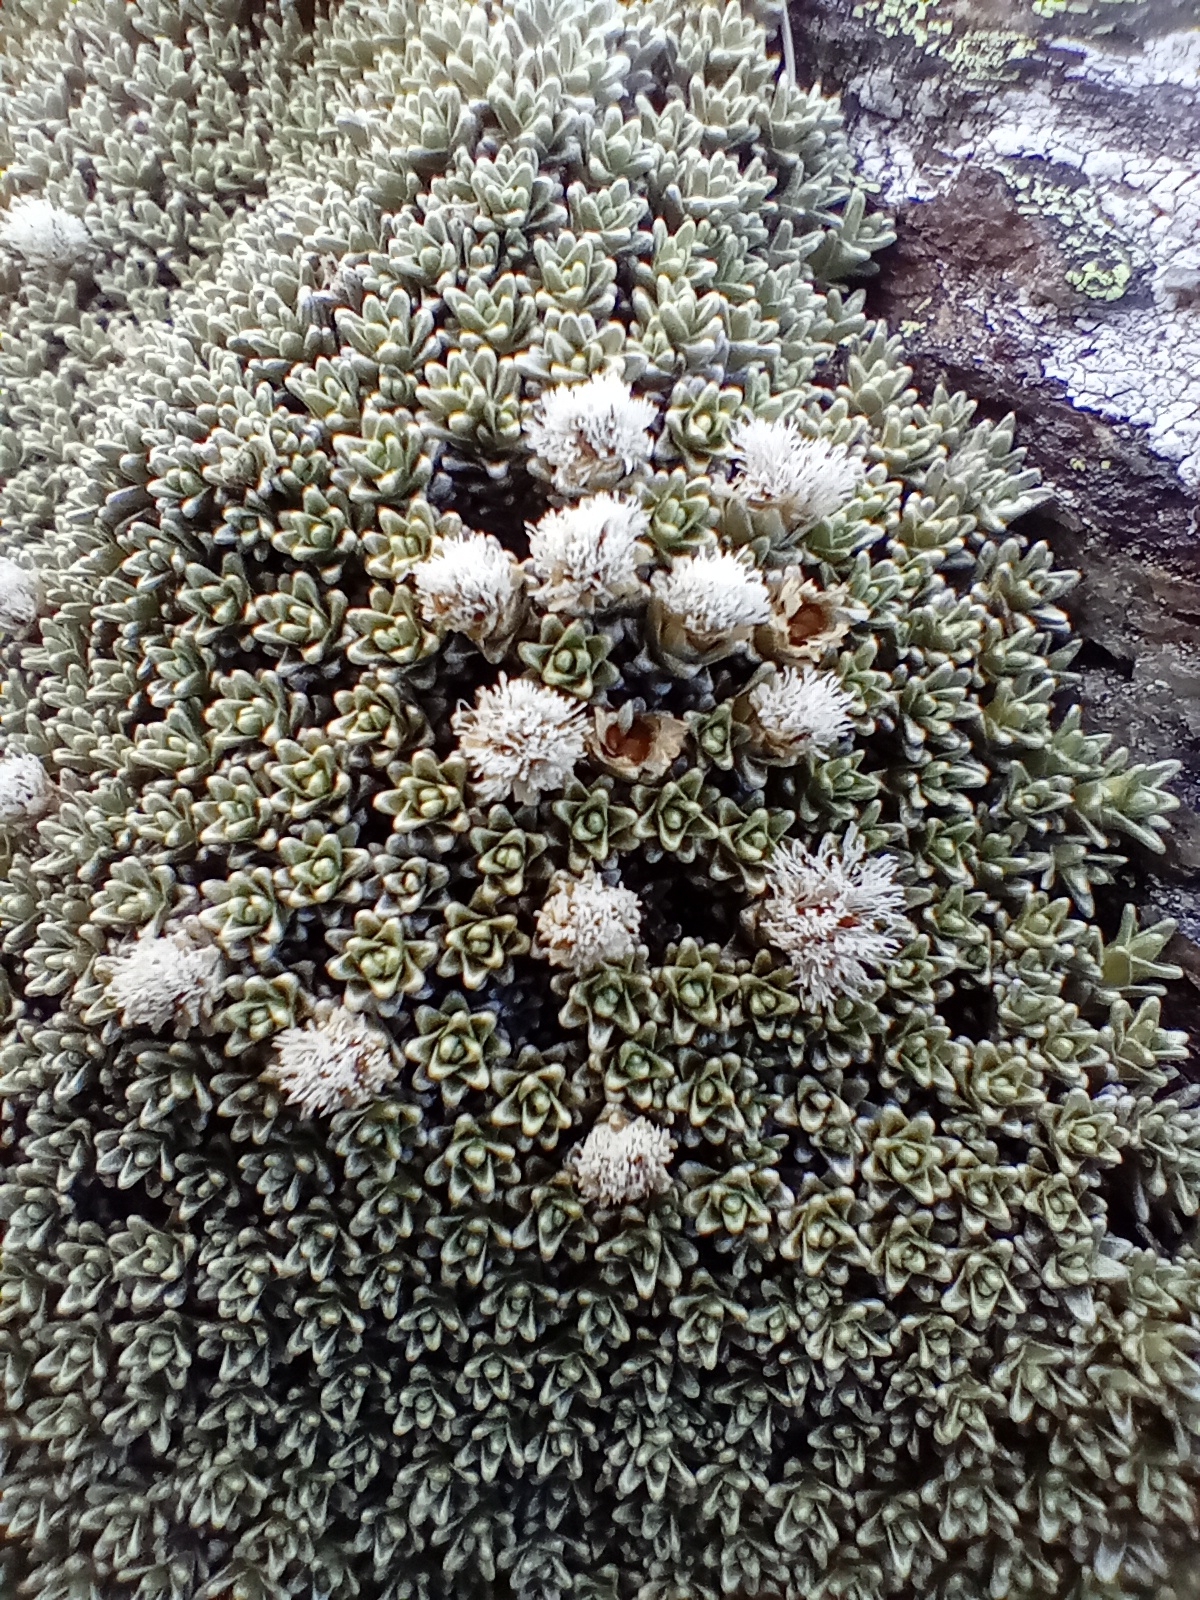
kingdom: Plantae
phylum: Tracheophyta
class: Magnoliopsida
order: Asterales
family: Asteraceae
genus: Raoulia
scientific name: Raoulia hectorii
